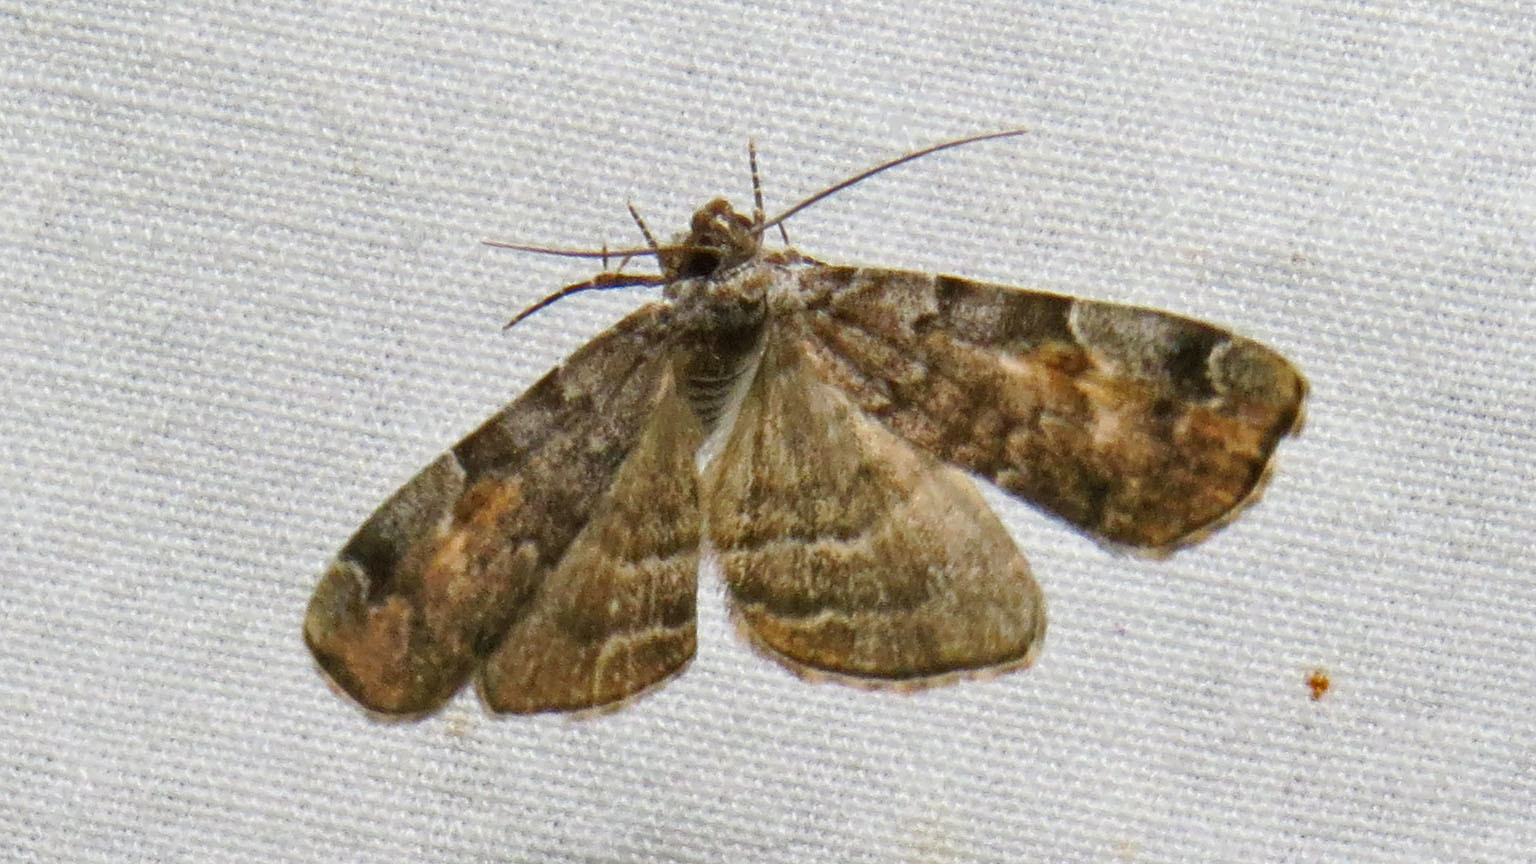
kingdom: Animalia
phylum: Arthropoda
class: Insecta
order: Lepidoptera
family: Erebidae
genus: Idia
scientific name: Idia americalis
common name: American idia moth
